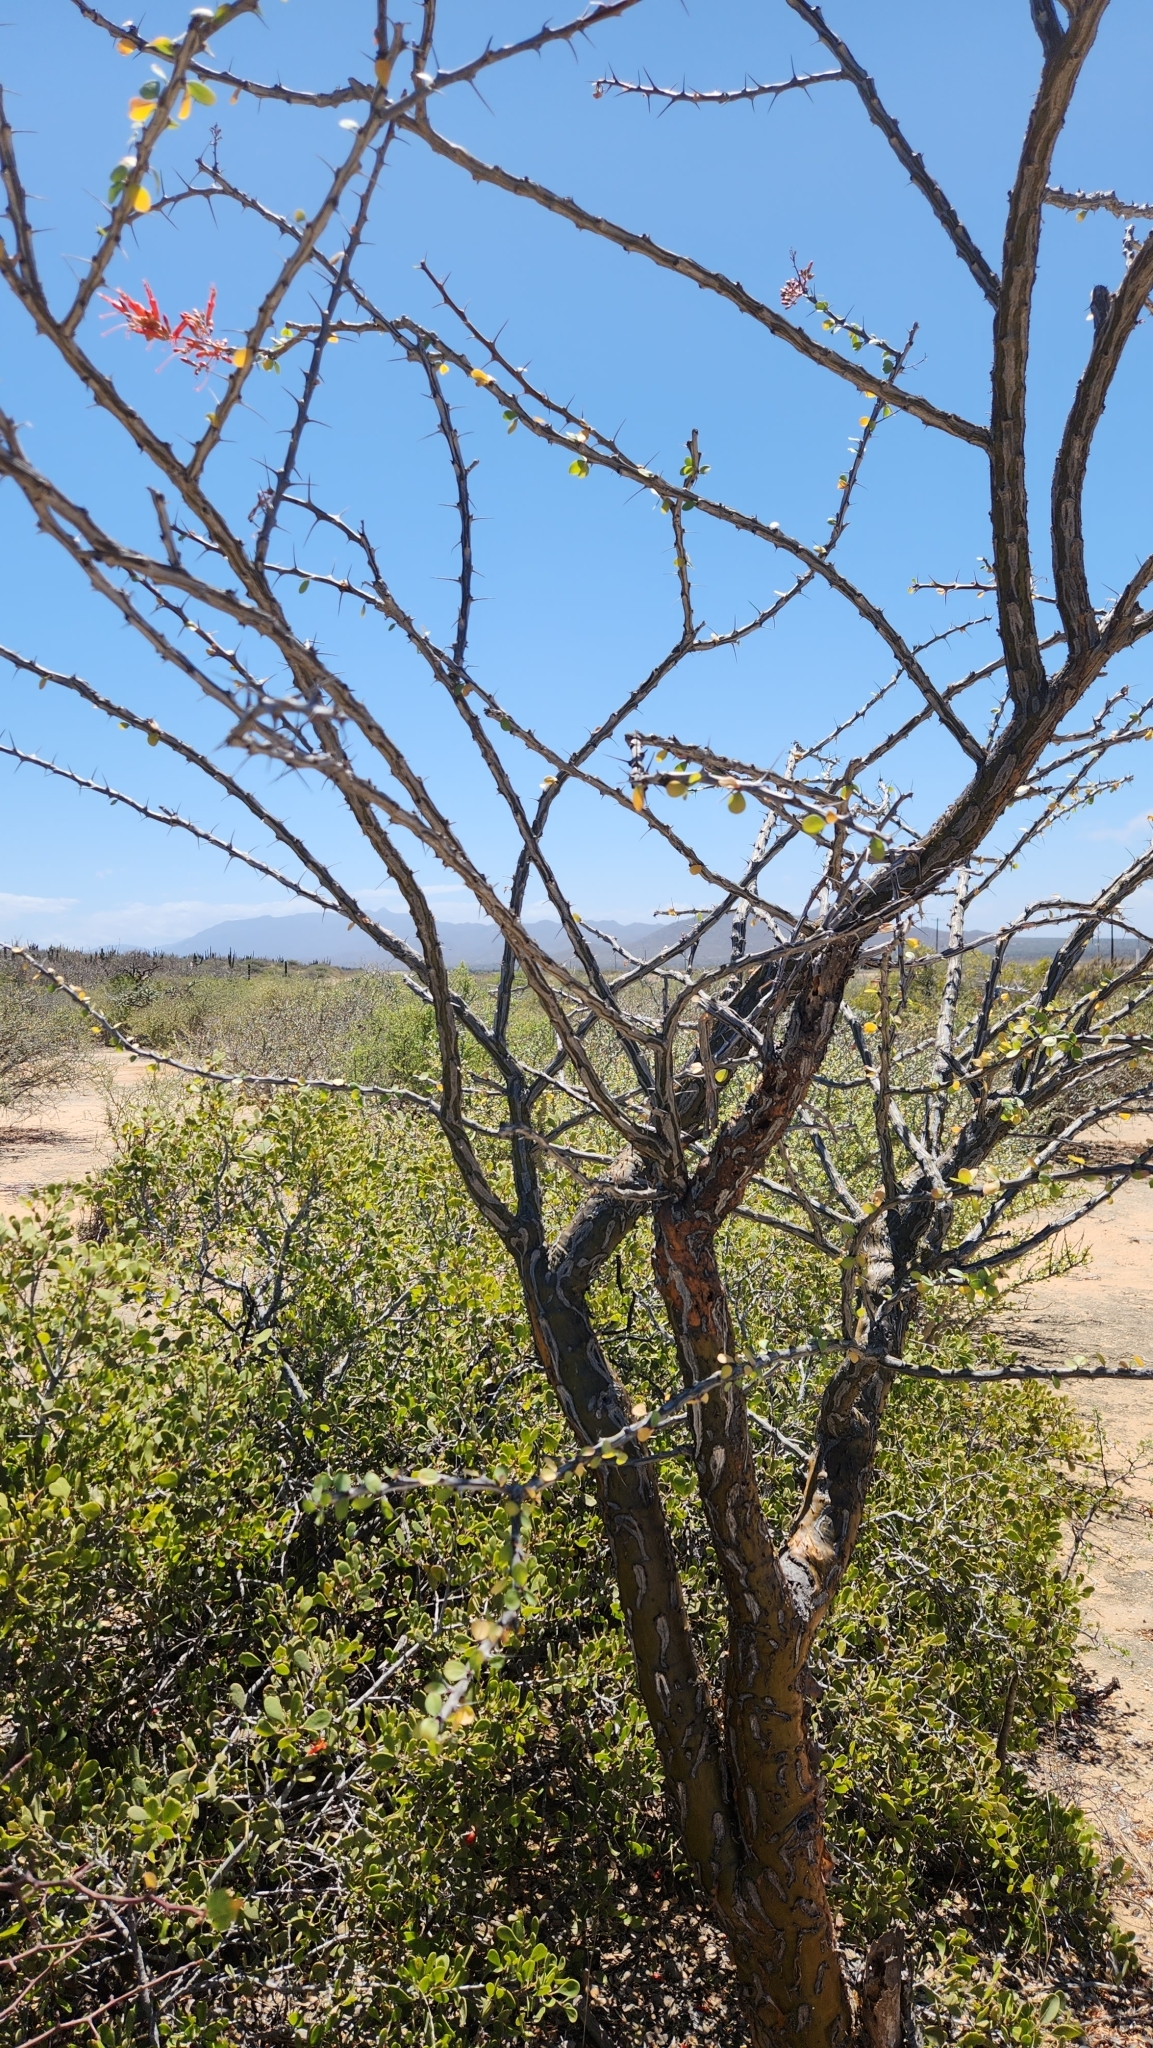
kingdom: Plantae
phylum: Tracheophyta
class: Magnoliopsida
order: Ericales
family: Fouquieriaceae
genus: Fouquieria
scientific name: Fouquieria diguetii
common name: Adam's tree
